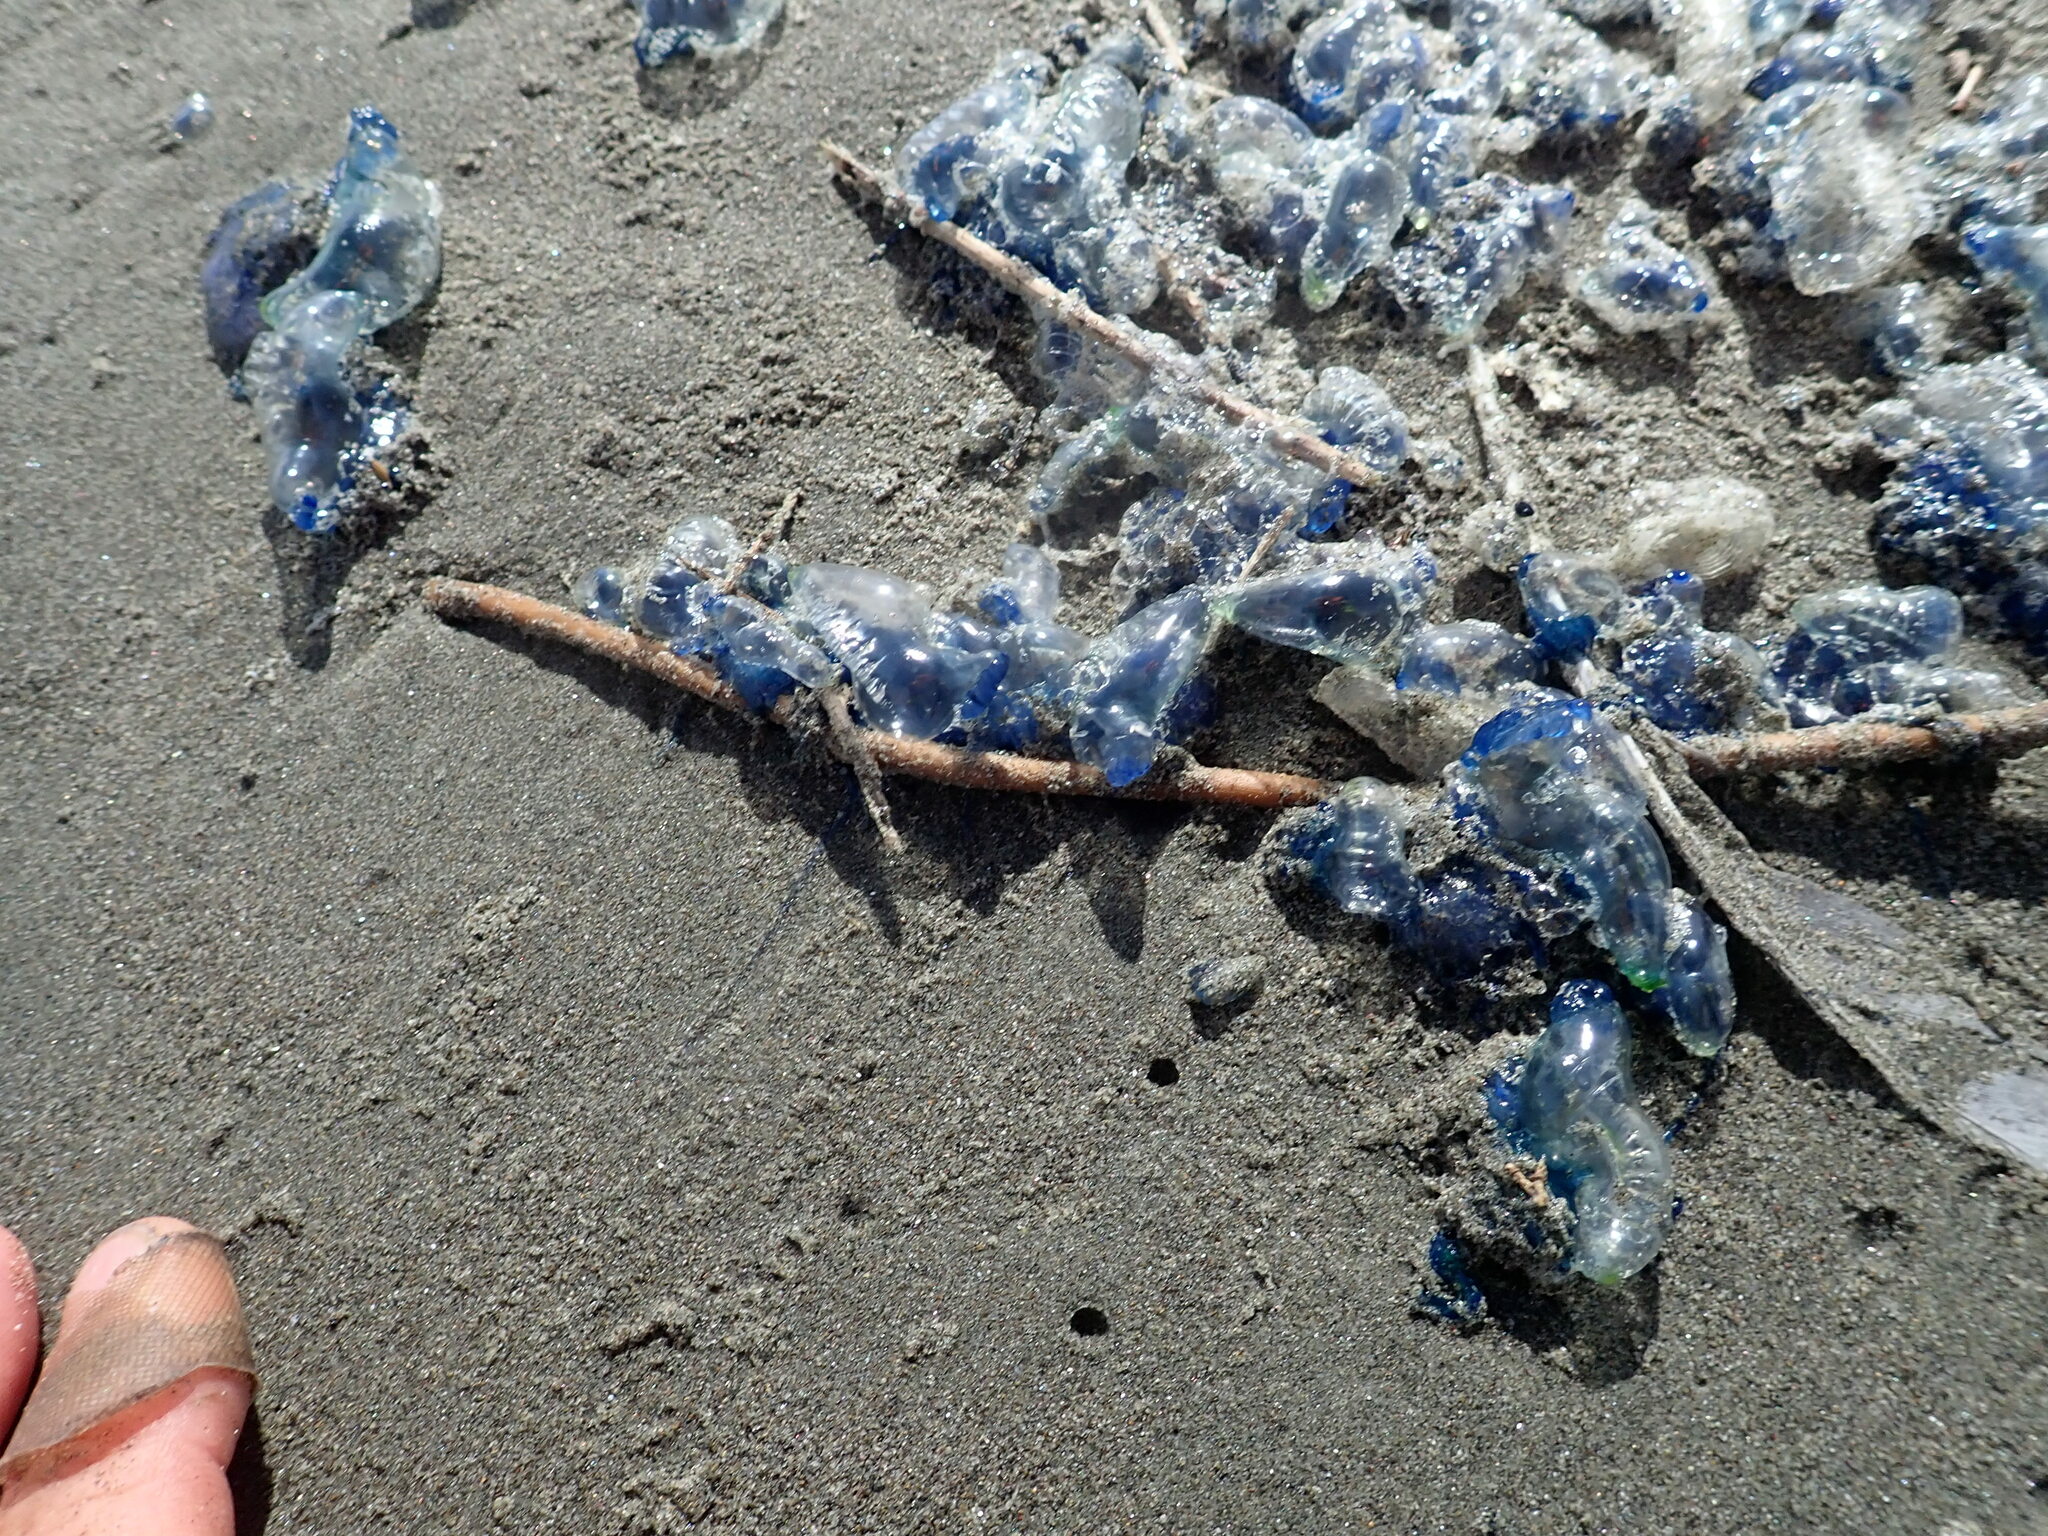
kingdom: Animalia
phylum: Cnidaria
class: Hydrozoa
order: Siphonophorae
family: Physaliidae
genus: Physalia
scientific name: Physalia physalis
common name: Portuguese man-of-war
